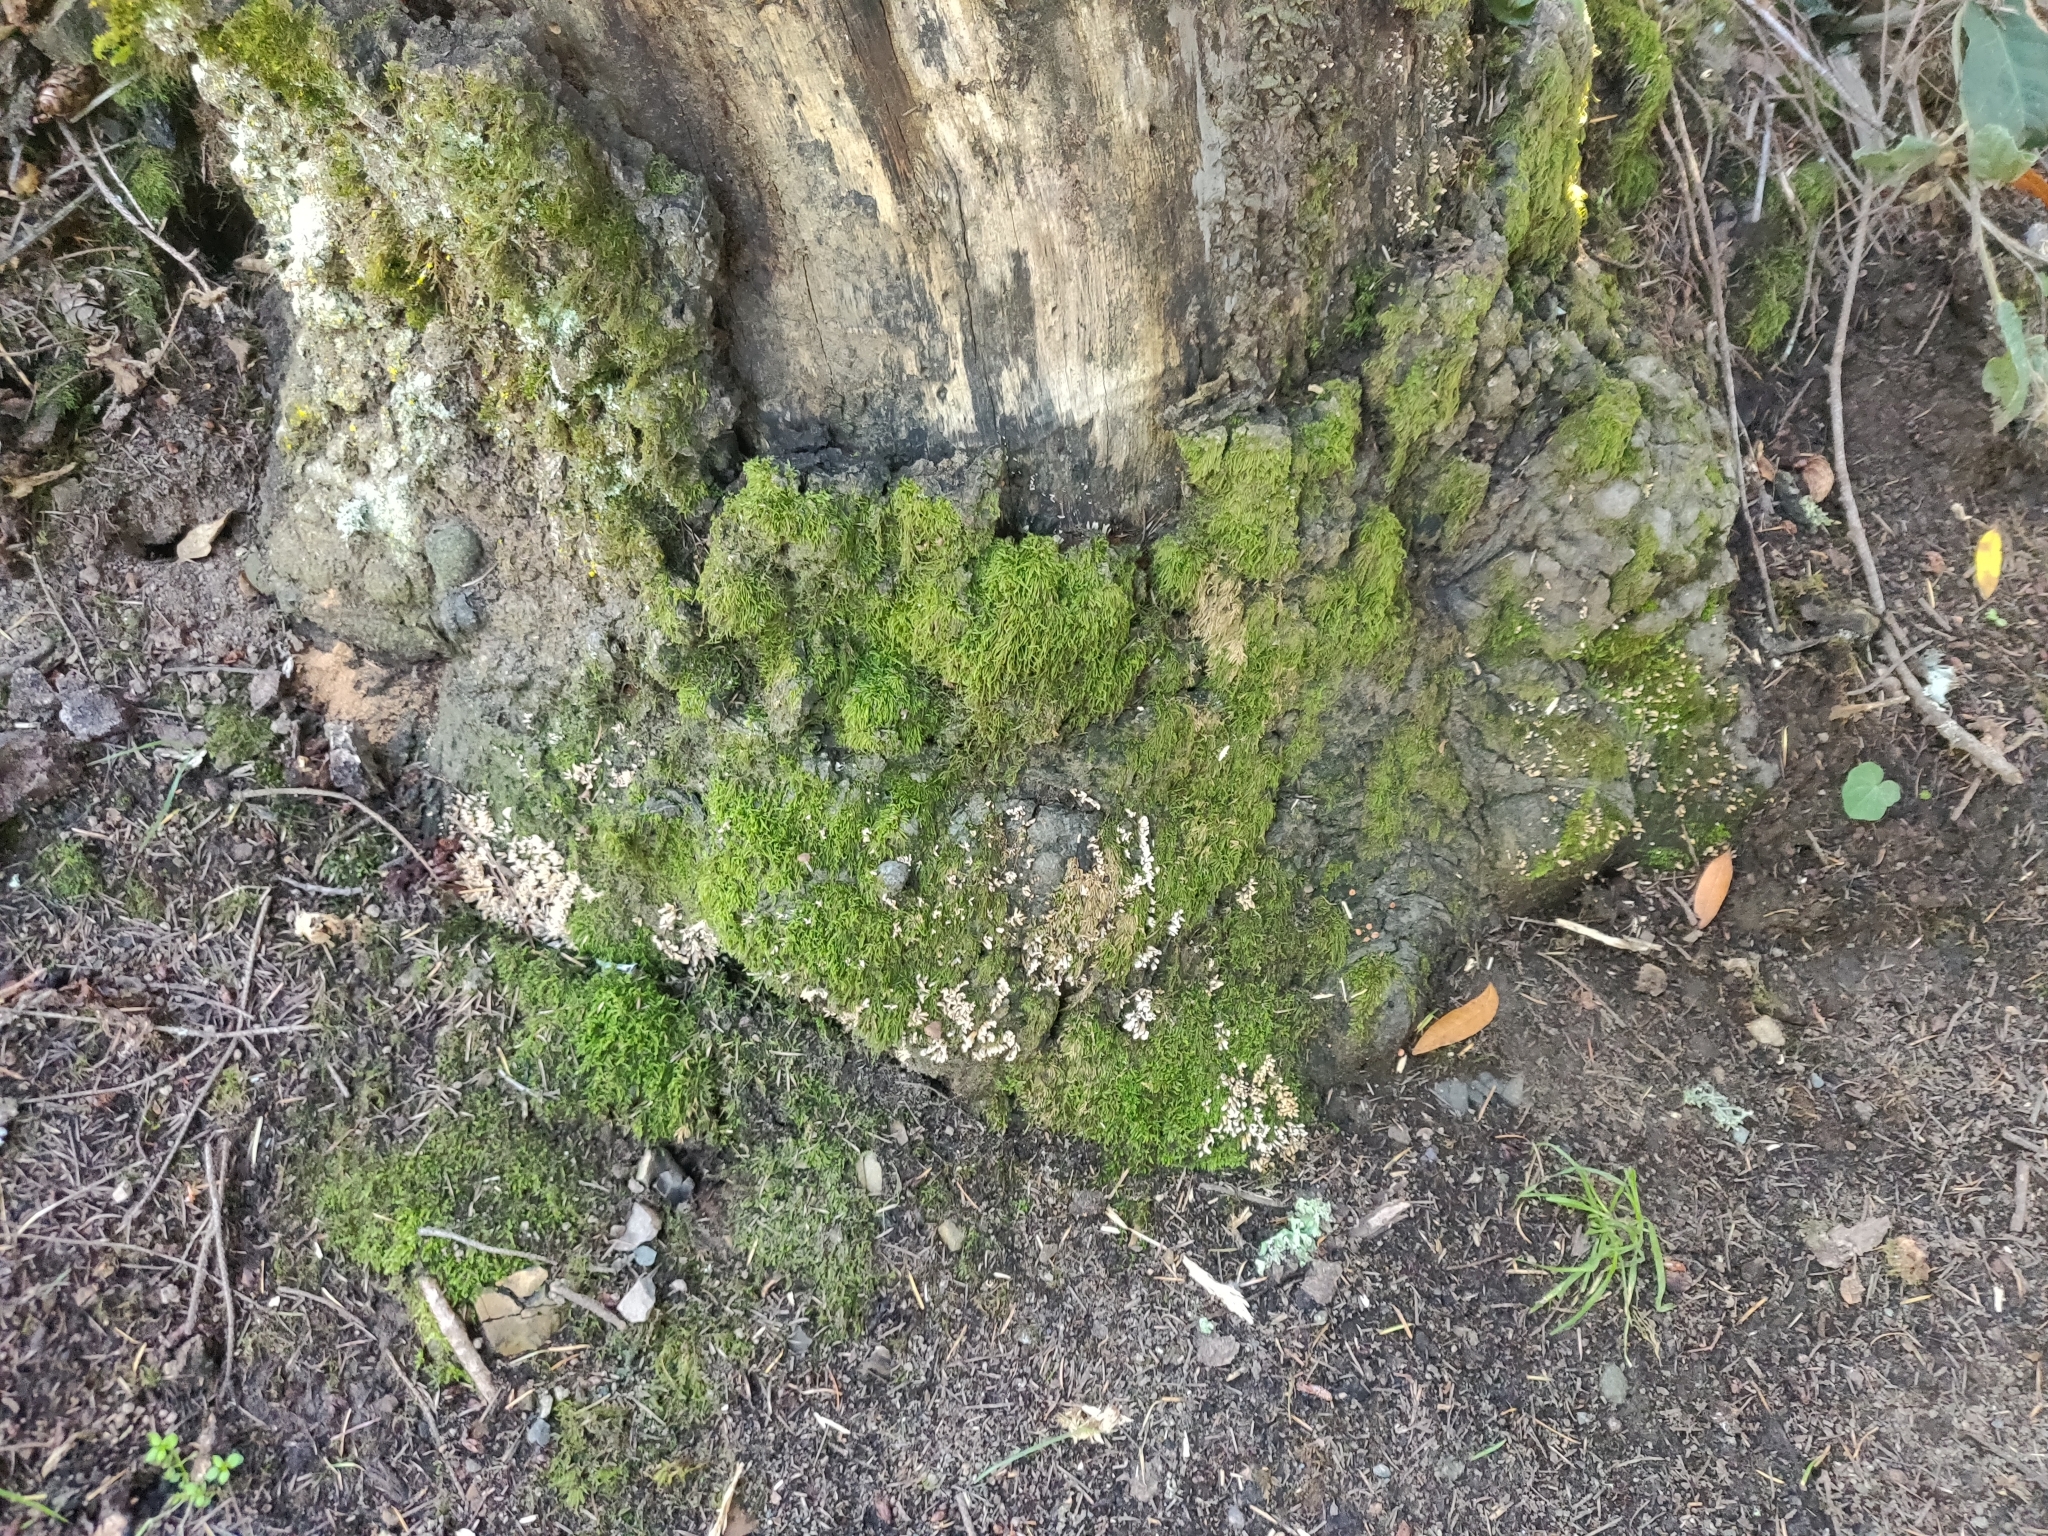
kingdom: Fungi
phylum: Ascomycota
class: Sordariomycetes
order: Xylariales
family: Xylariaceae
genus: Xylaria
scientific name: Xylaria hypoxylon
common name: Candle-snuff fungus
